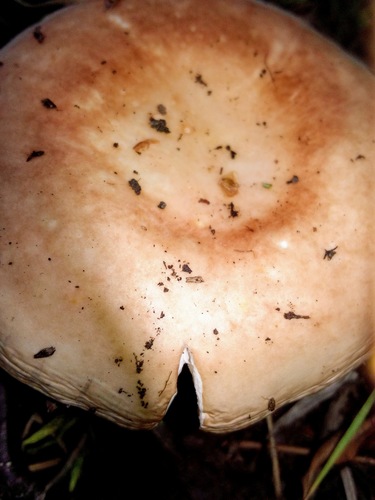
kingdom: Fungi
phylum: Basidiomycota
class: Agaricomycetes
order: Russulales
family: Russulaceae
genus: Russula
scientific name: Russula paludosa
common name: Hintapink
